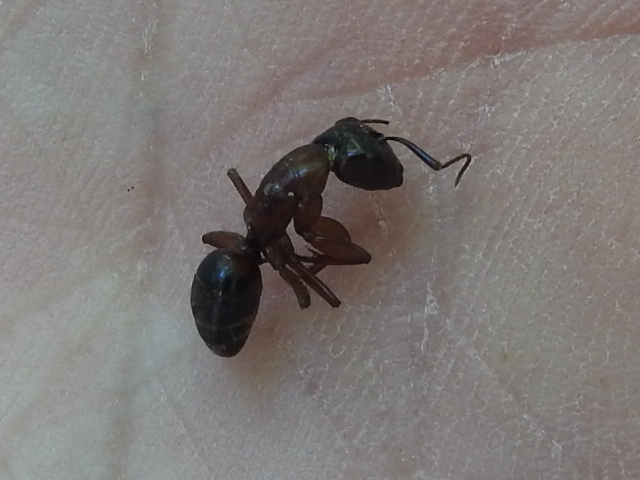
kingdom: Animalia
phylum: Arthropoda
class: Insecta
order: Hymenoptera
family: Formicidae
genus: Camponotus
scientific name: Camponotus texanus
